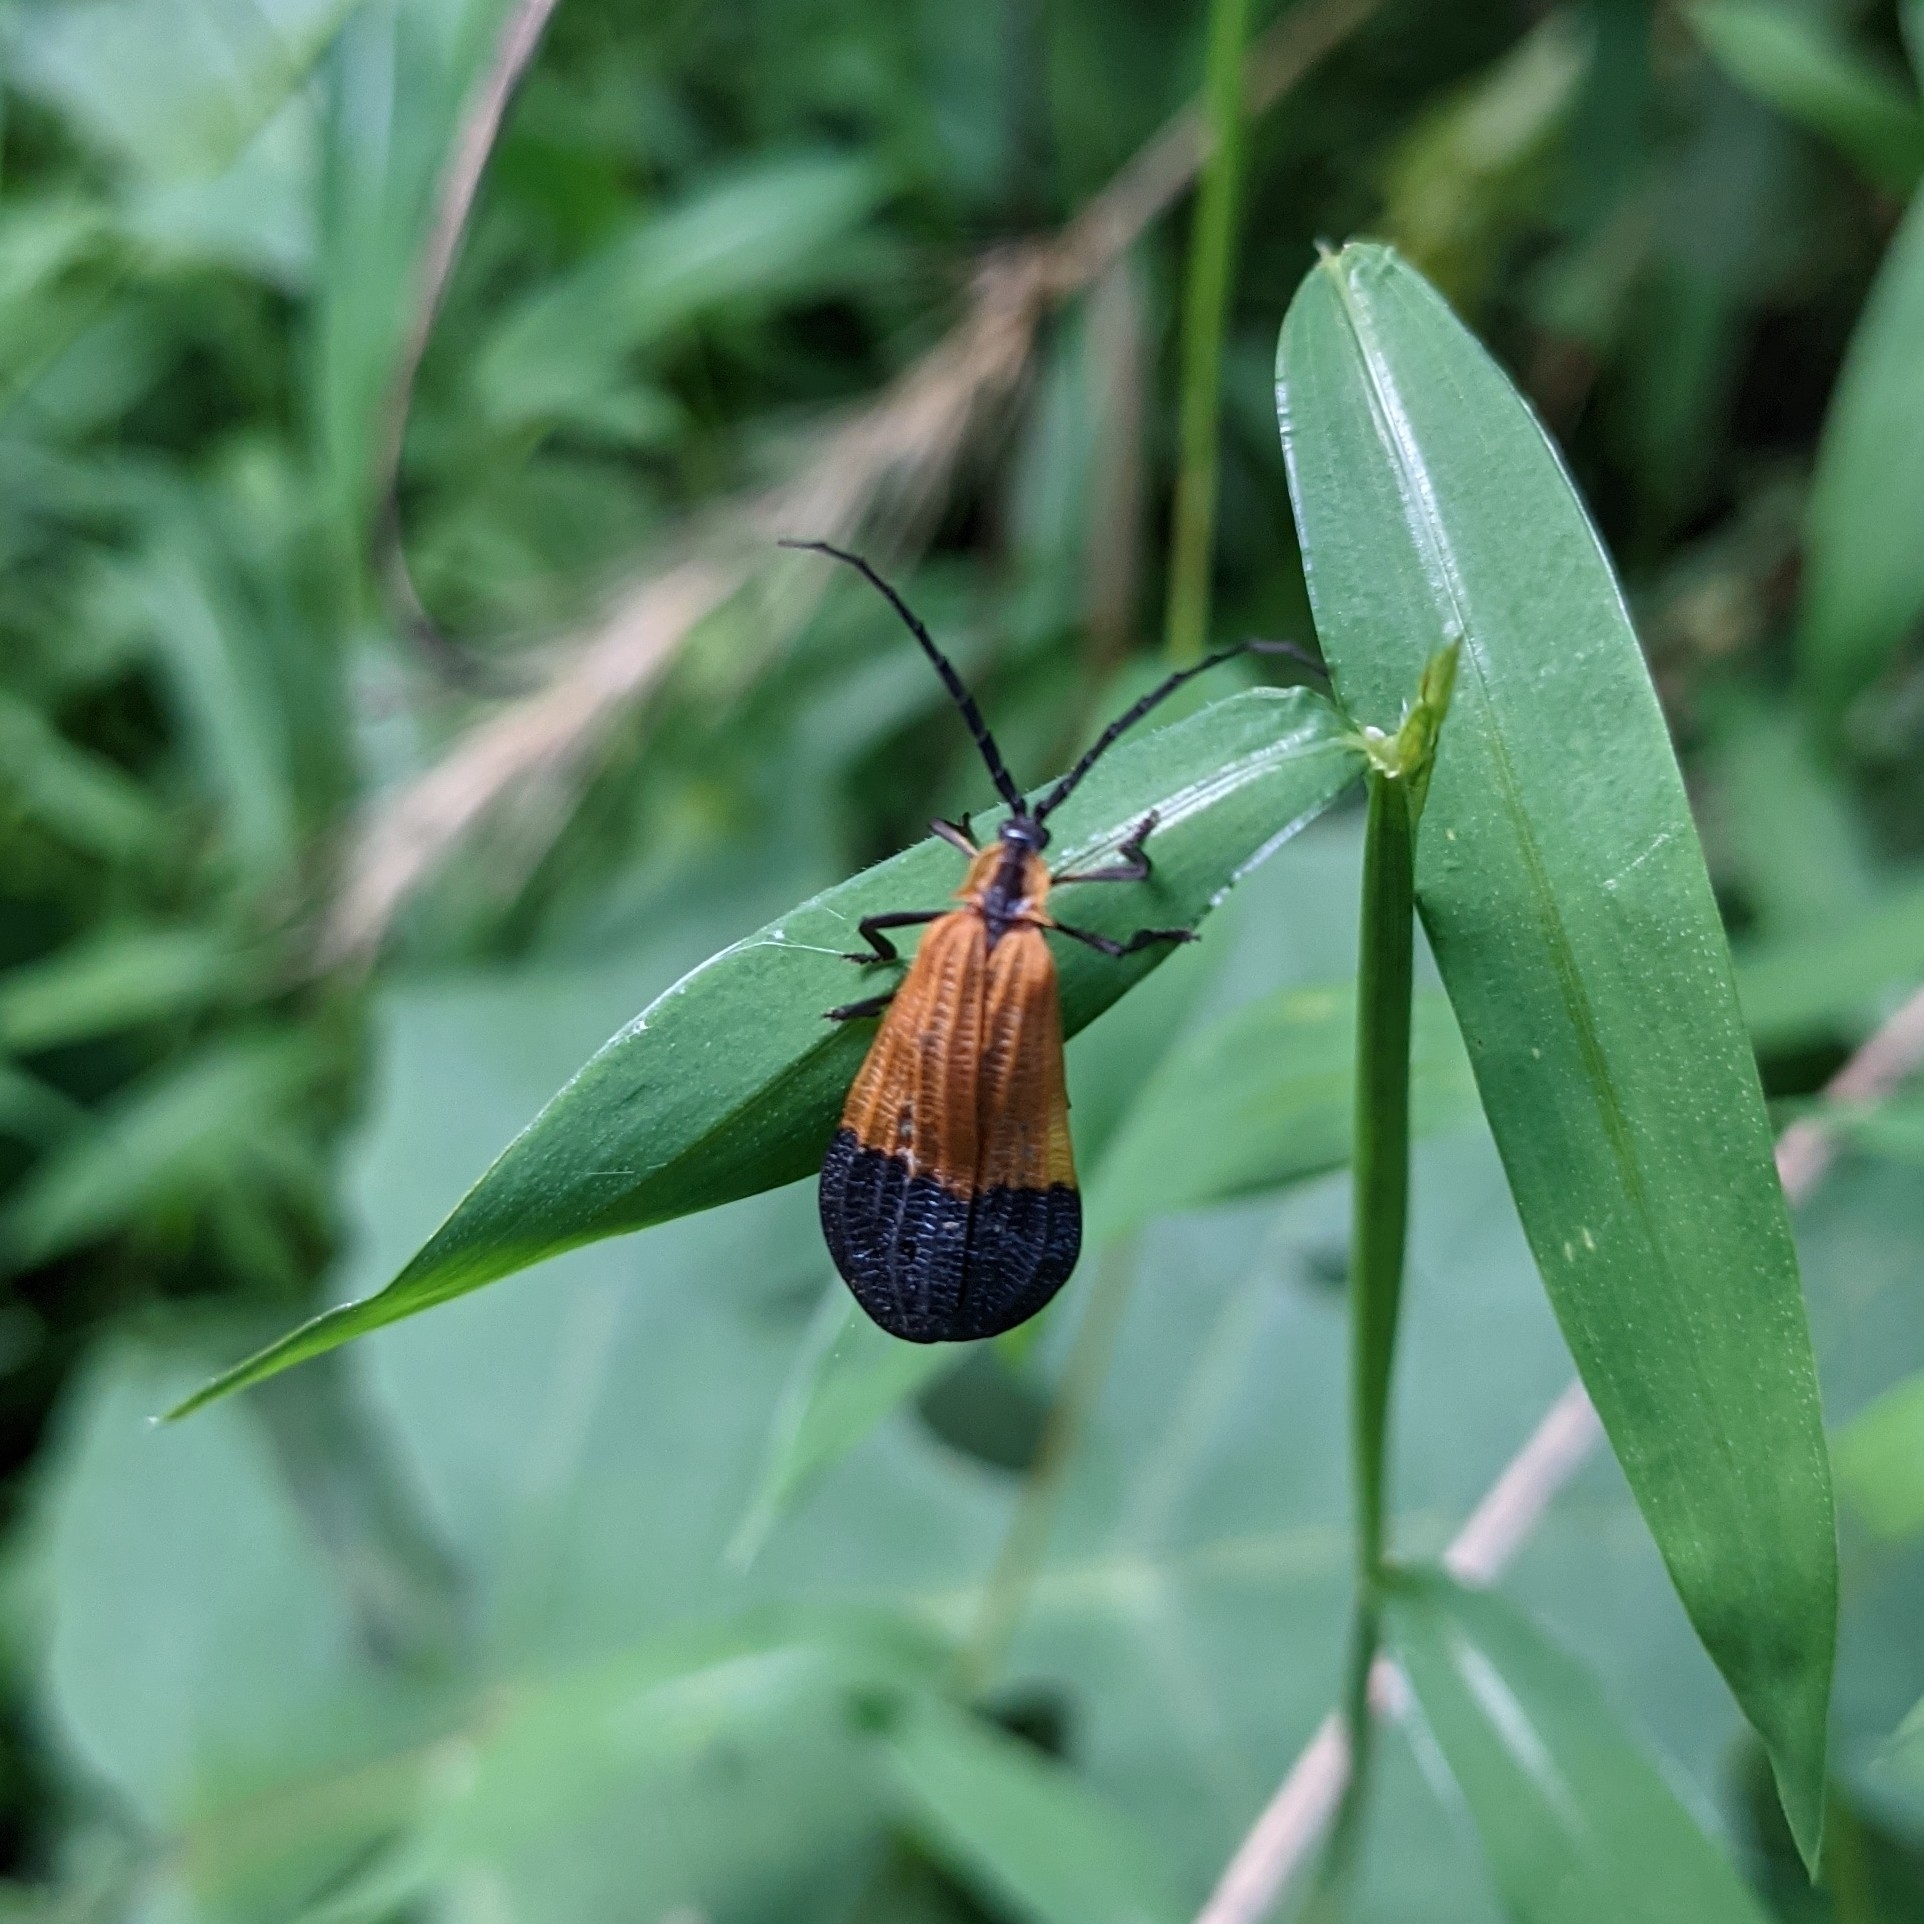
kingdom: Animalia
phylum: Arthropoda
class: Insecta
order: Coleoptera
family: Lycidae
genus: Calopteron
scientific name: Calopteron terminale
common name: End band net-winged beetle
